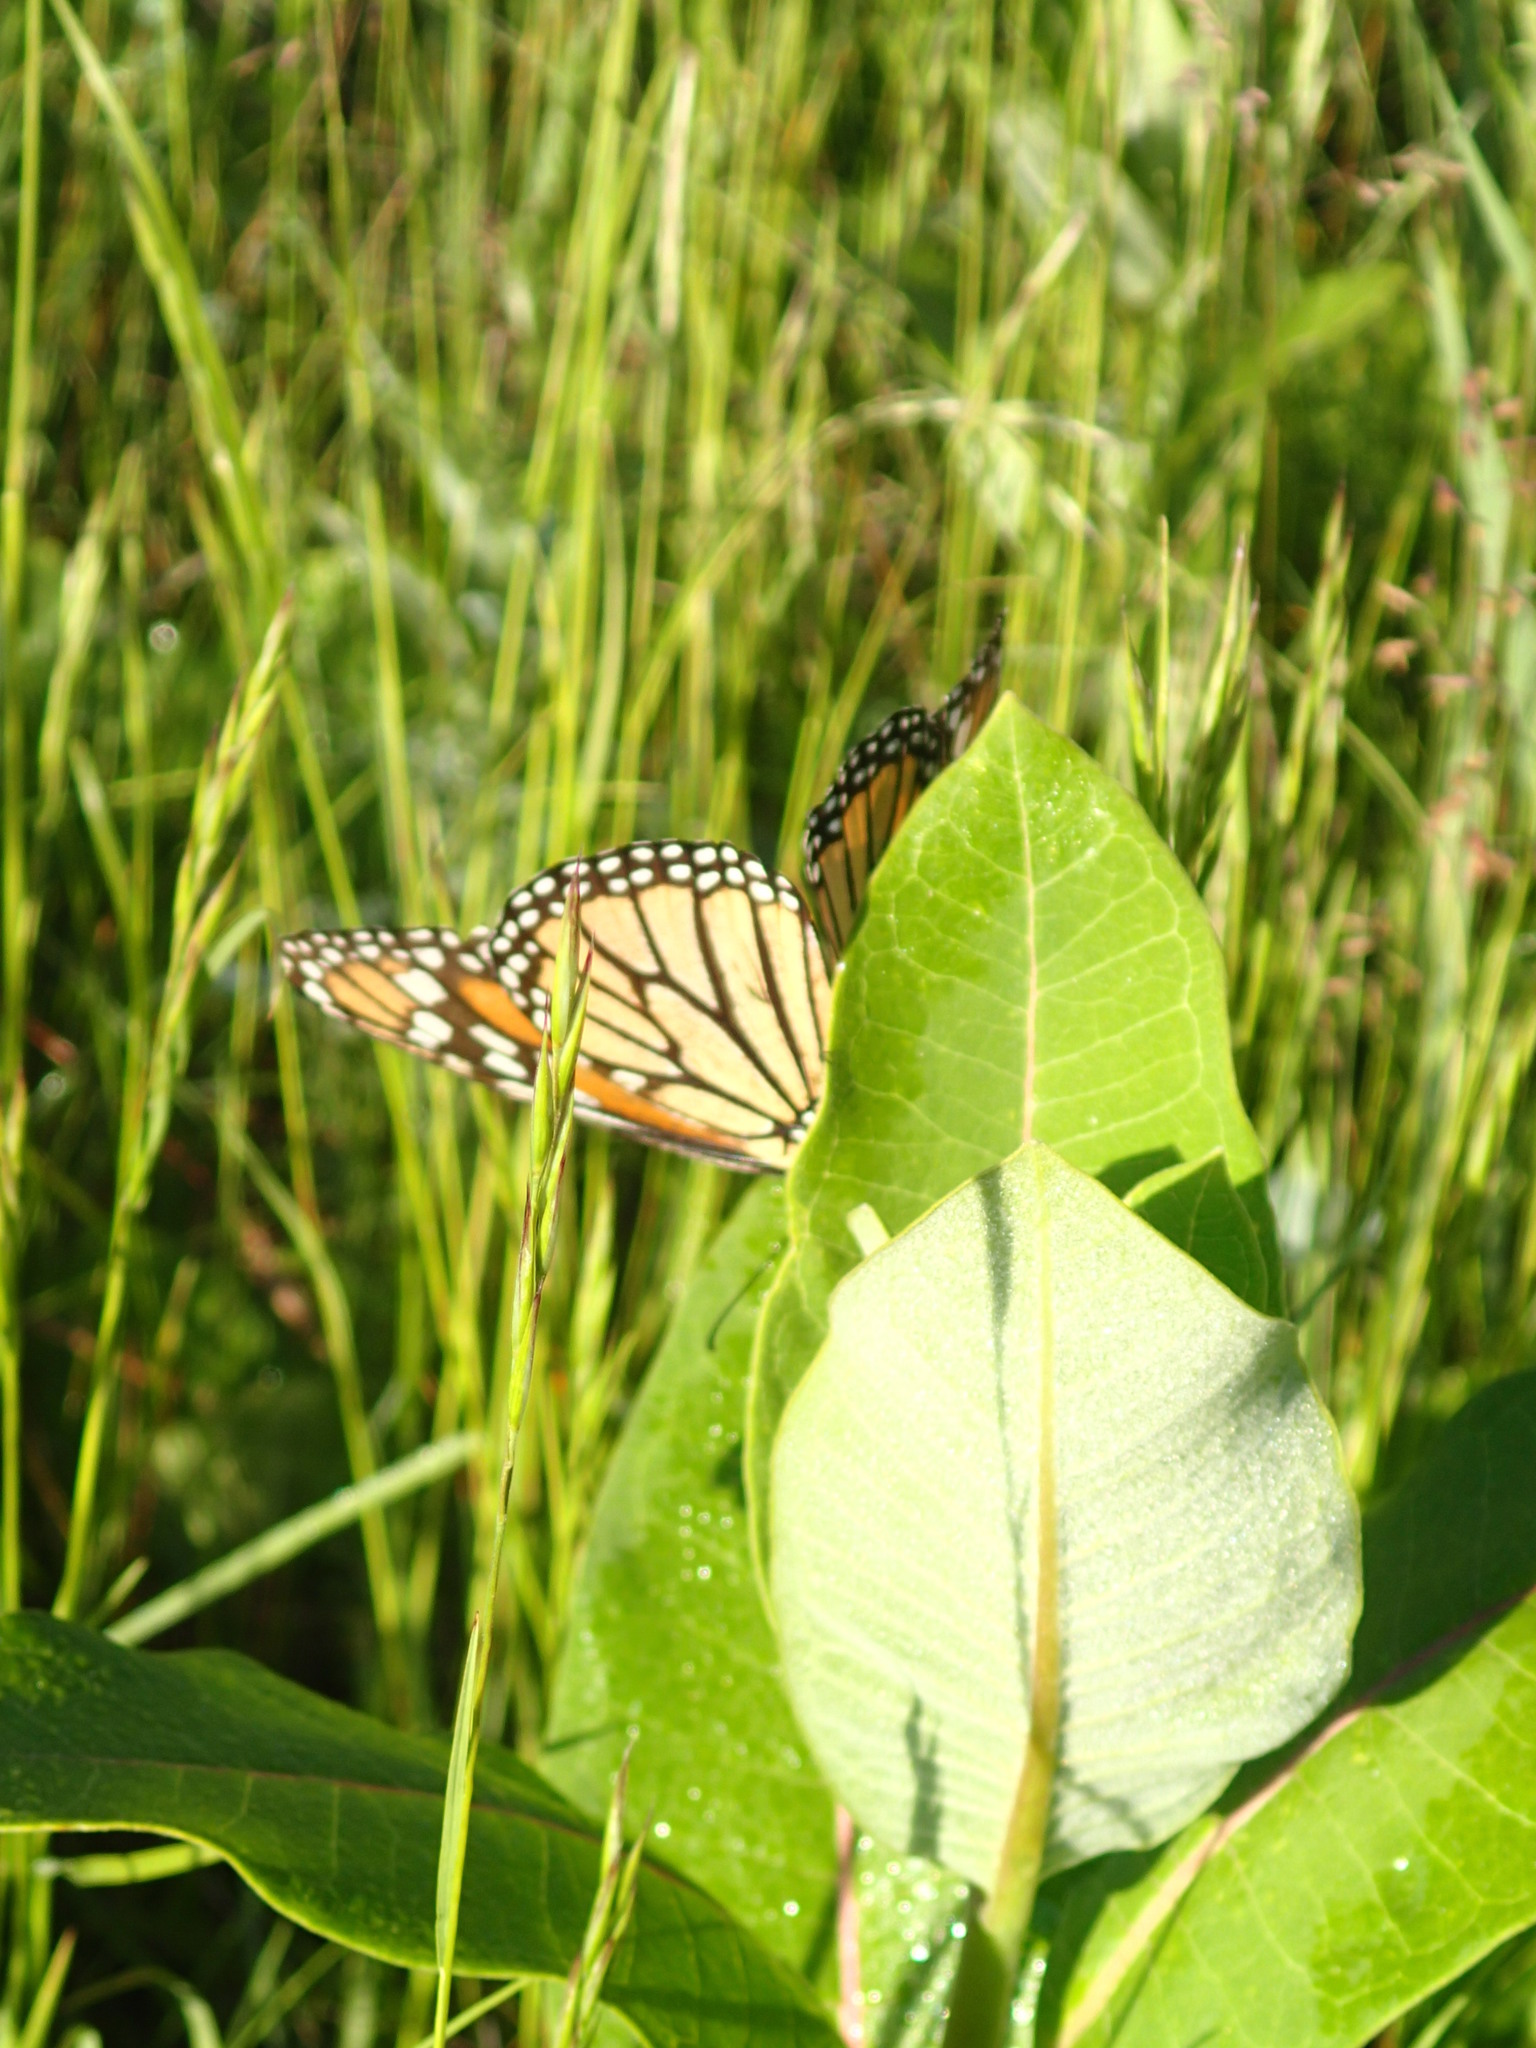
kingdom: Plantae
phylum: Tracheophyta
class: Magnoliopsida
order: Gentianales
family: Apocynaceae
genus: Asclepias
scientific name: Asclepias syriaca
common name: Common milkweed
